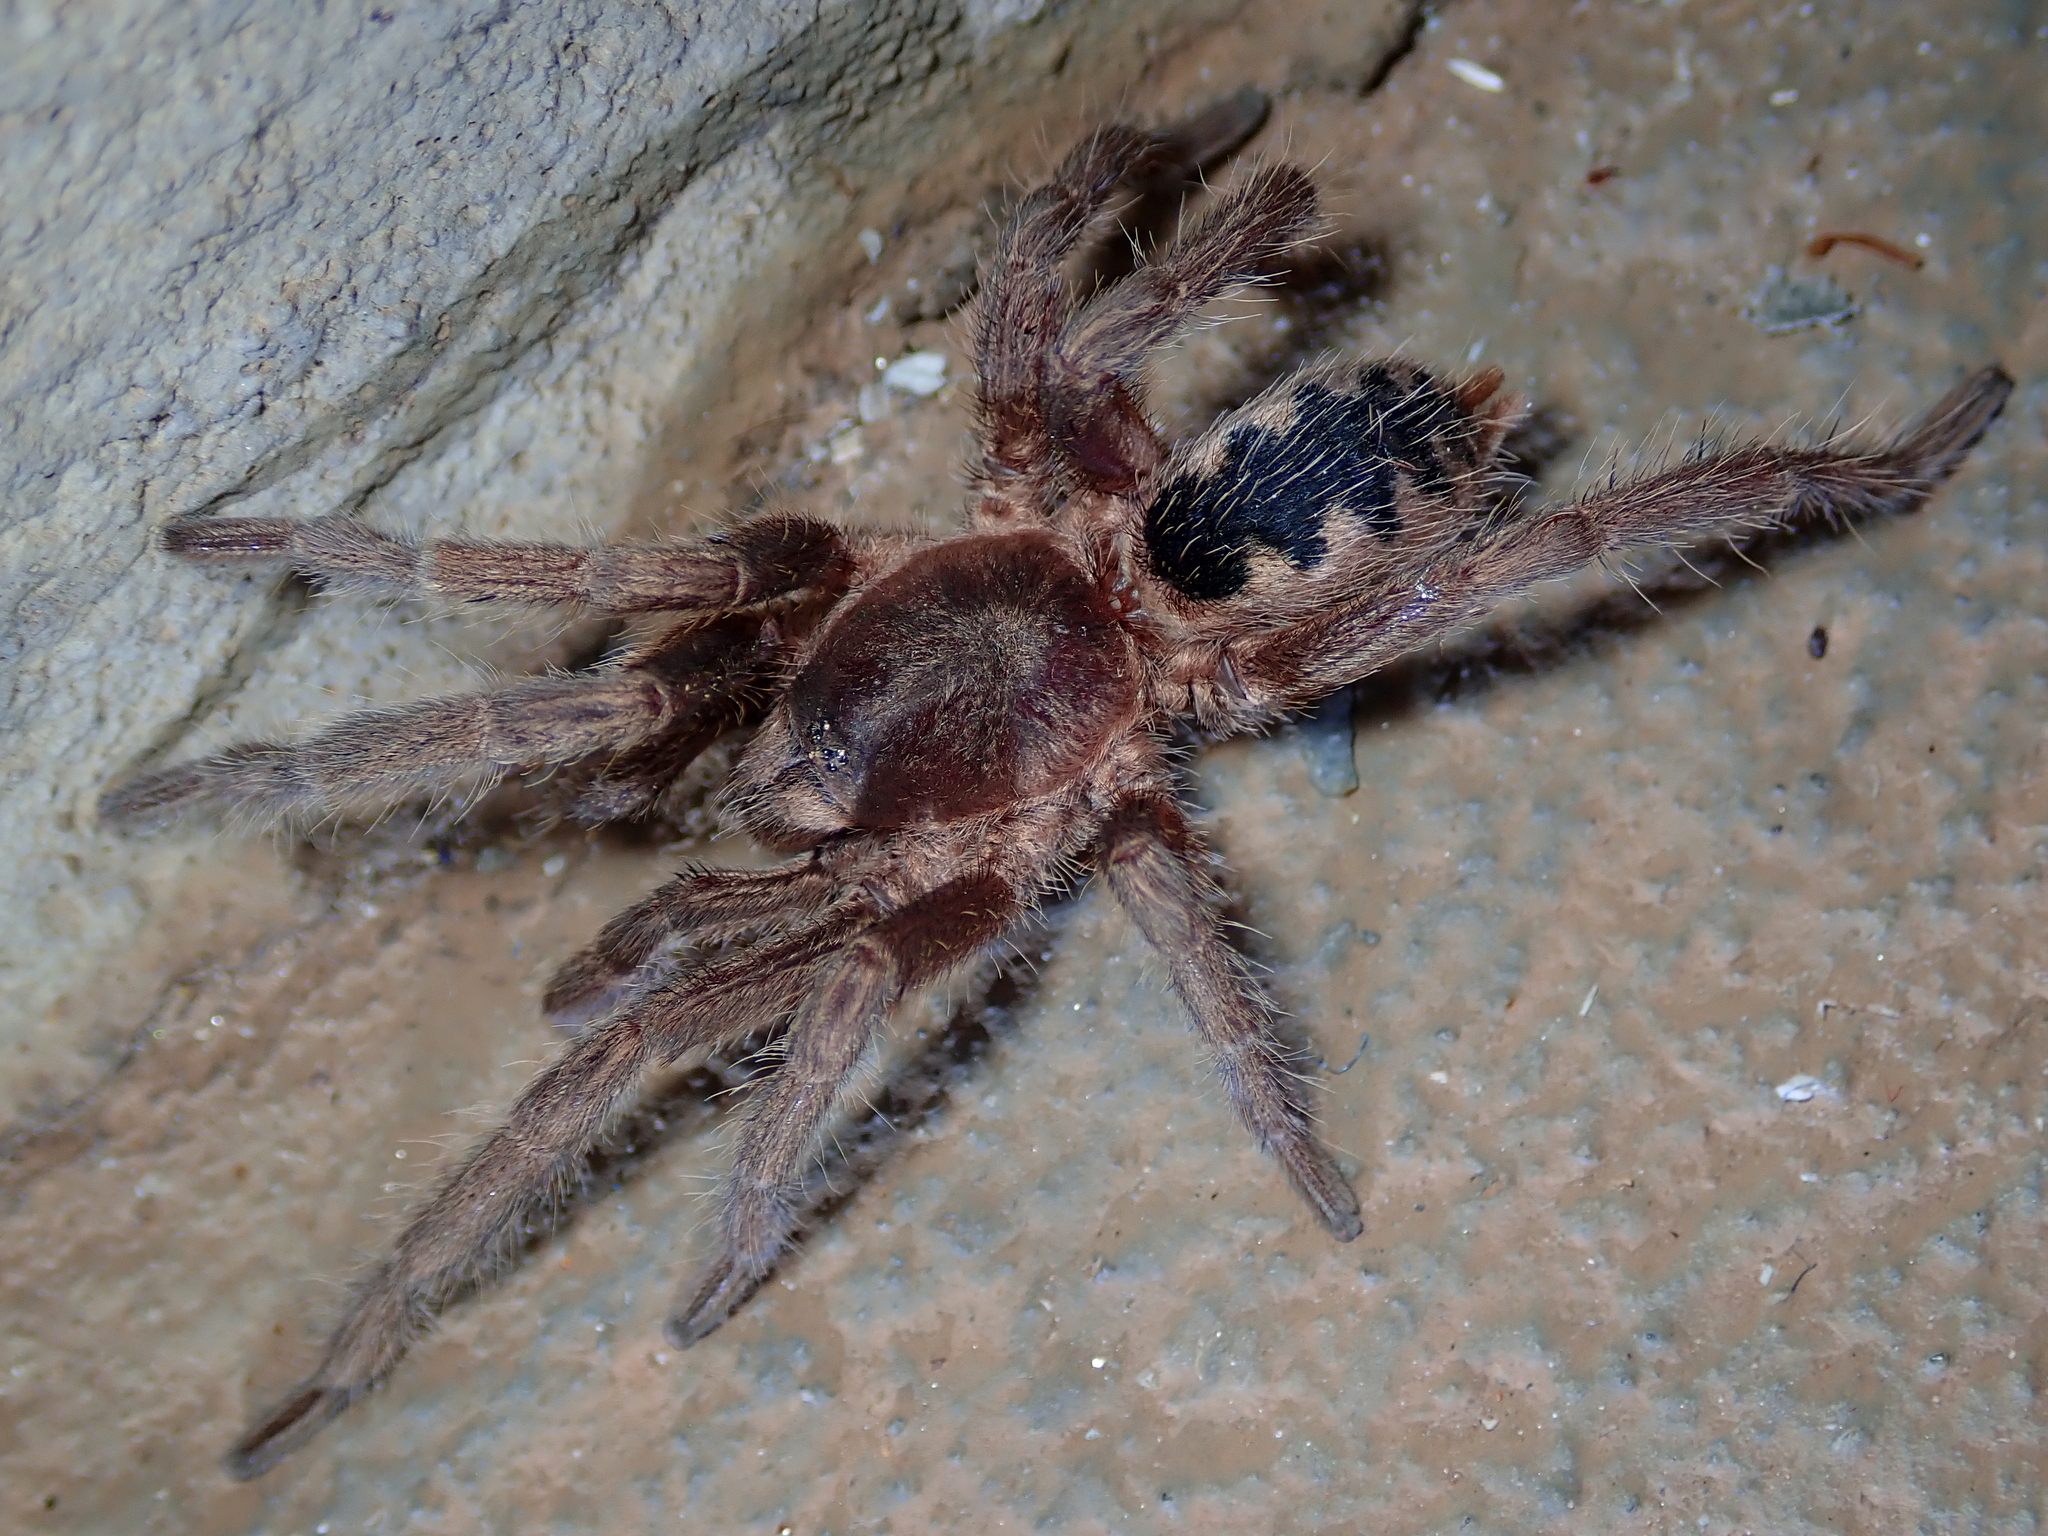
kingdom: Animalia
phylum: Arthropoda
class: Arachnida
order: Araneae
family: Theraphosidae
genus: Guyruita
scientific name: Guyruita cerrado
